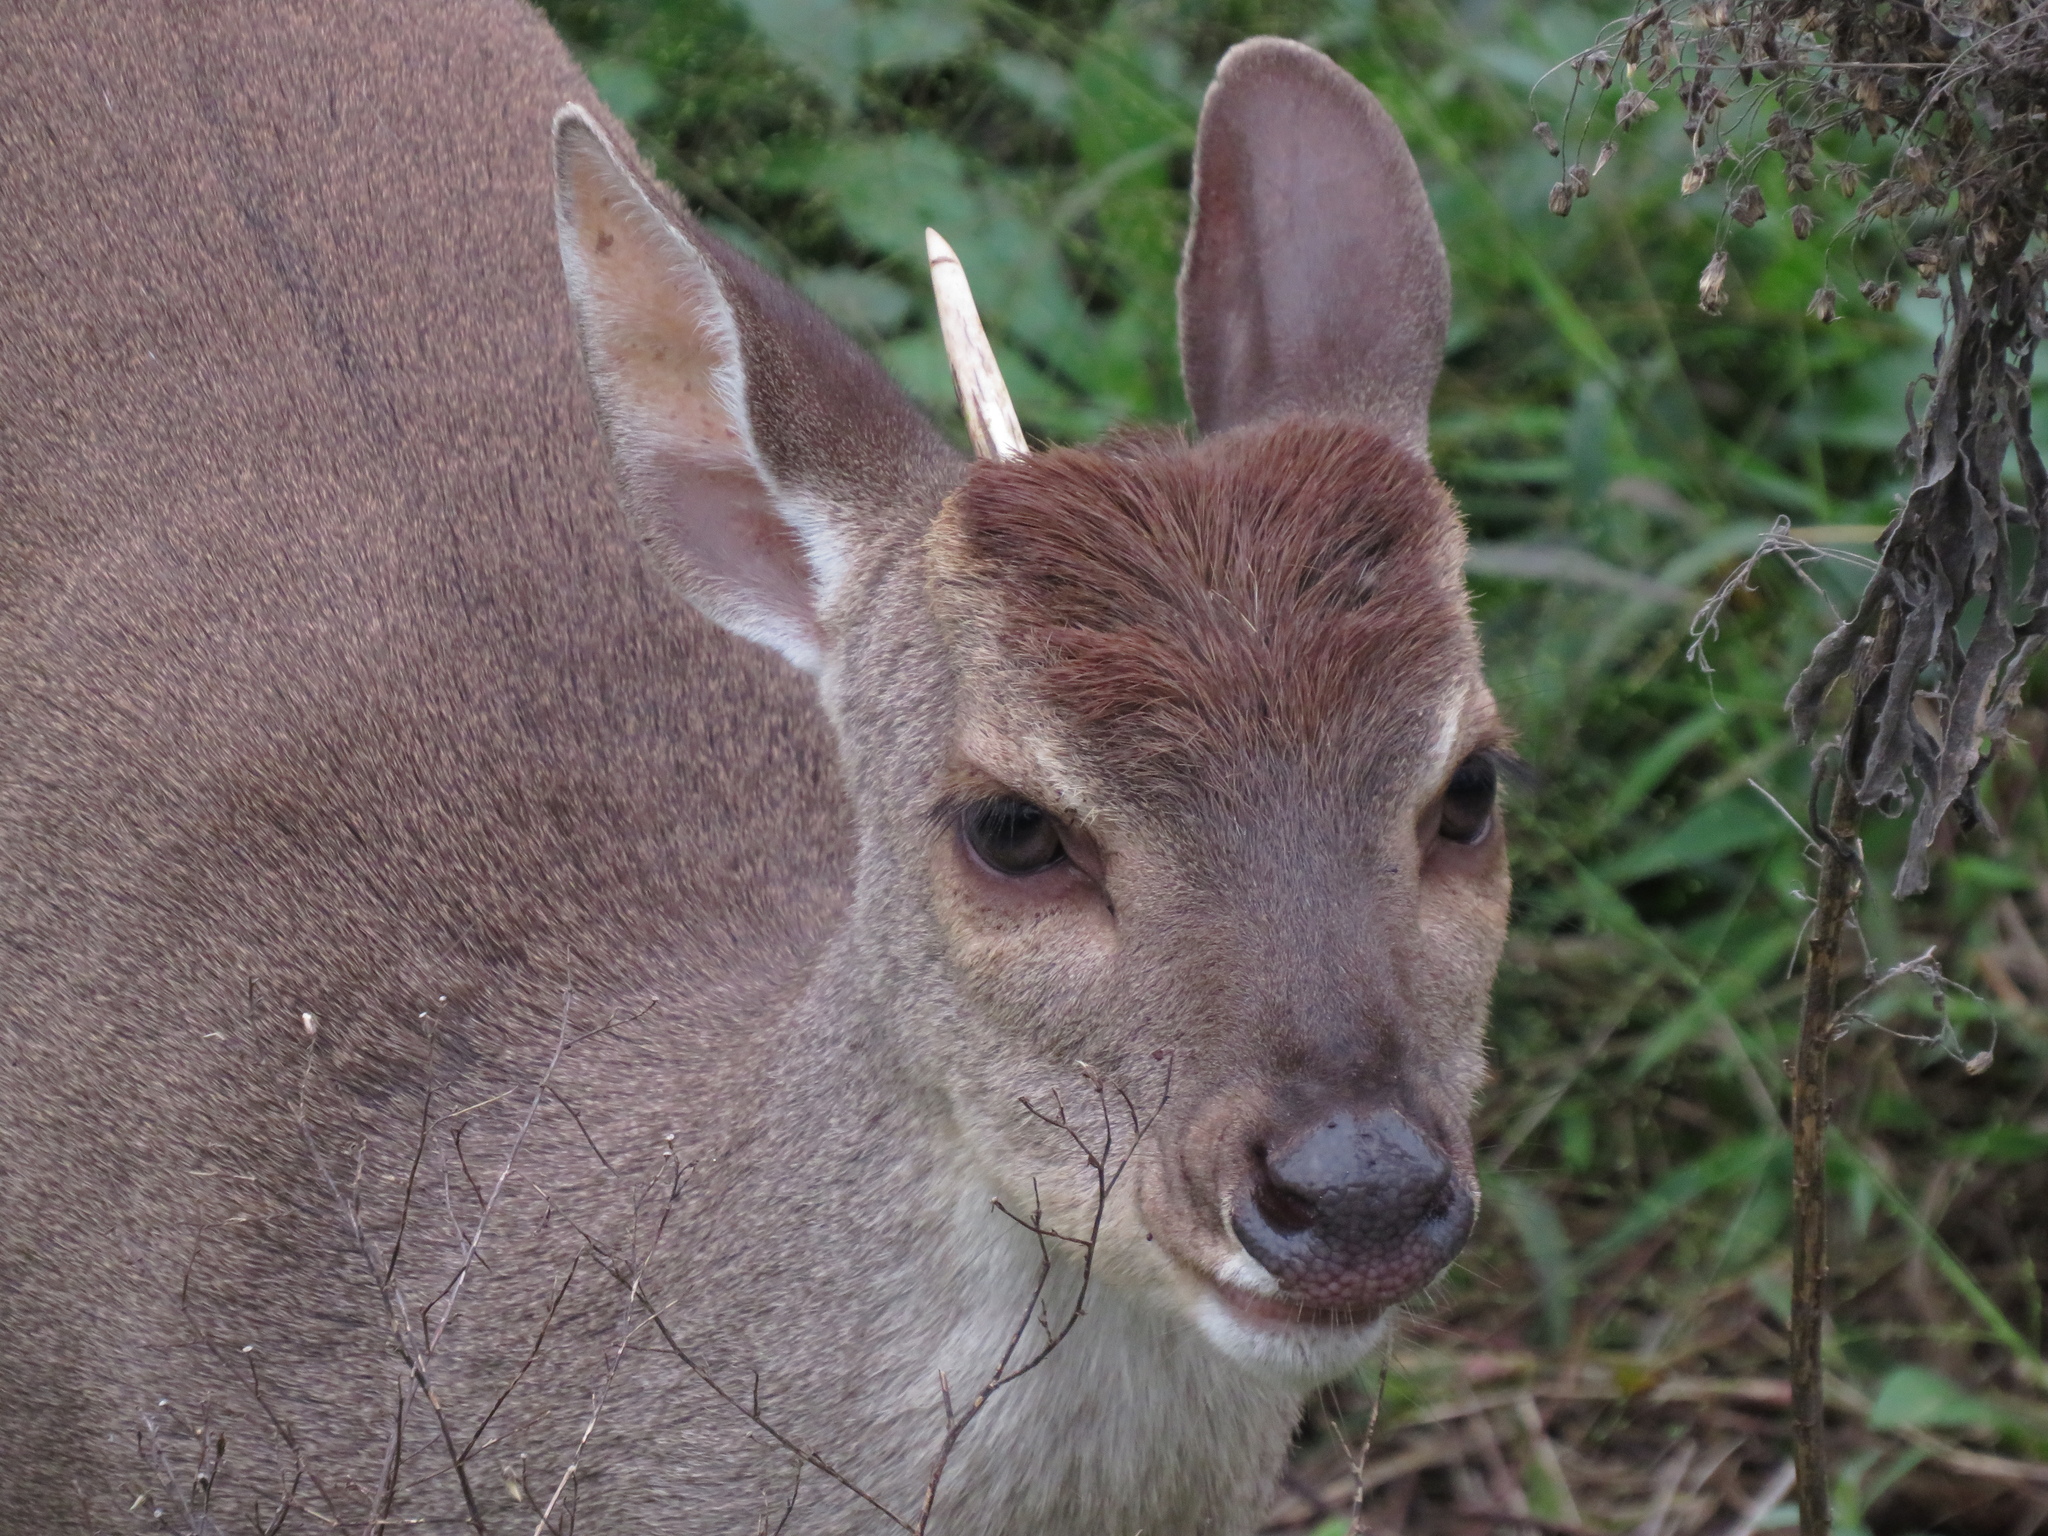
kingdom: Animalia
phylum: Chordata
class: Mammalia
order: Artiodactyla
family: Cervidae
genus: Mazama
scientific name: Mazama gouazoubira
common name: Gray brocket
